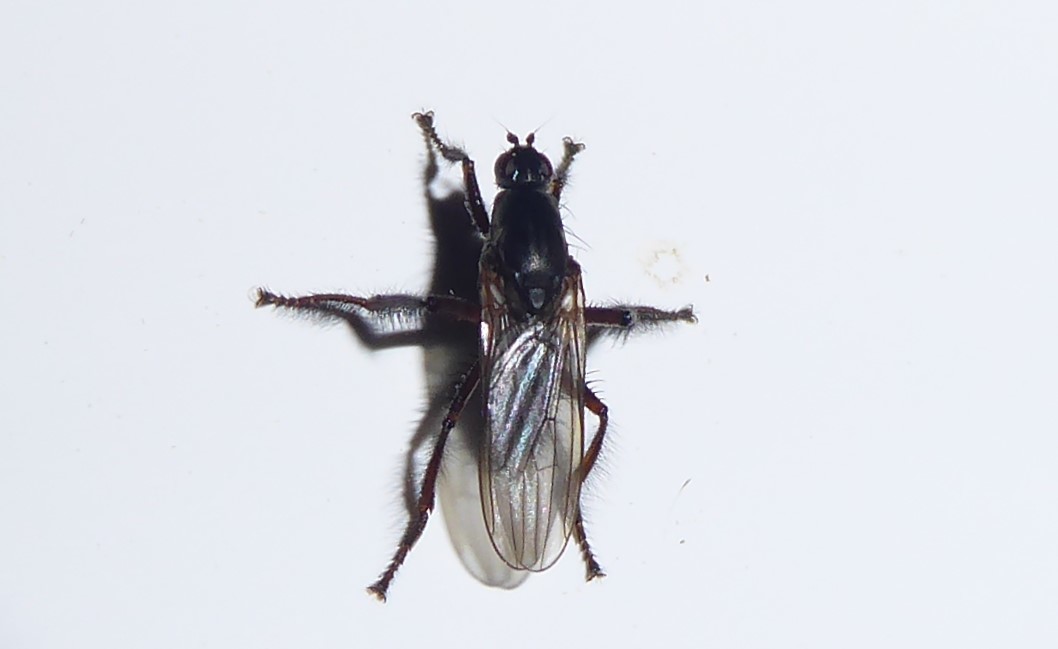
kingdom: Animalia
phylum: Arthropoda
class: Insecta
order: Diptera
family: Coelopidae
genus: Chaetocoelopa
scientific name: Chaetocoelopa littoralis
